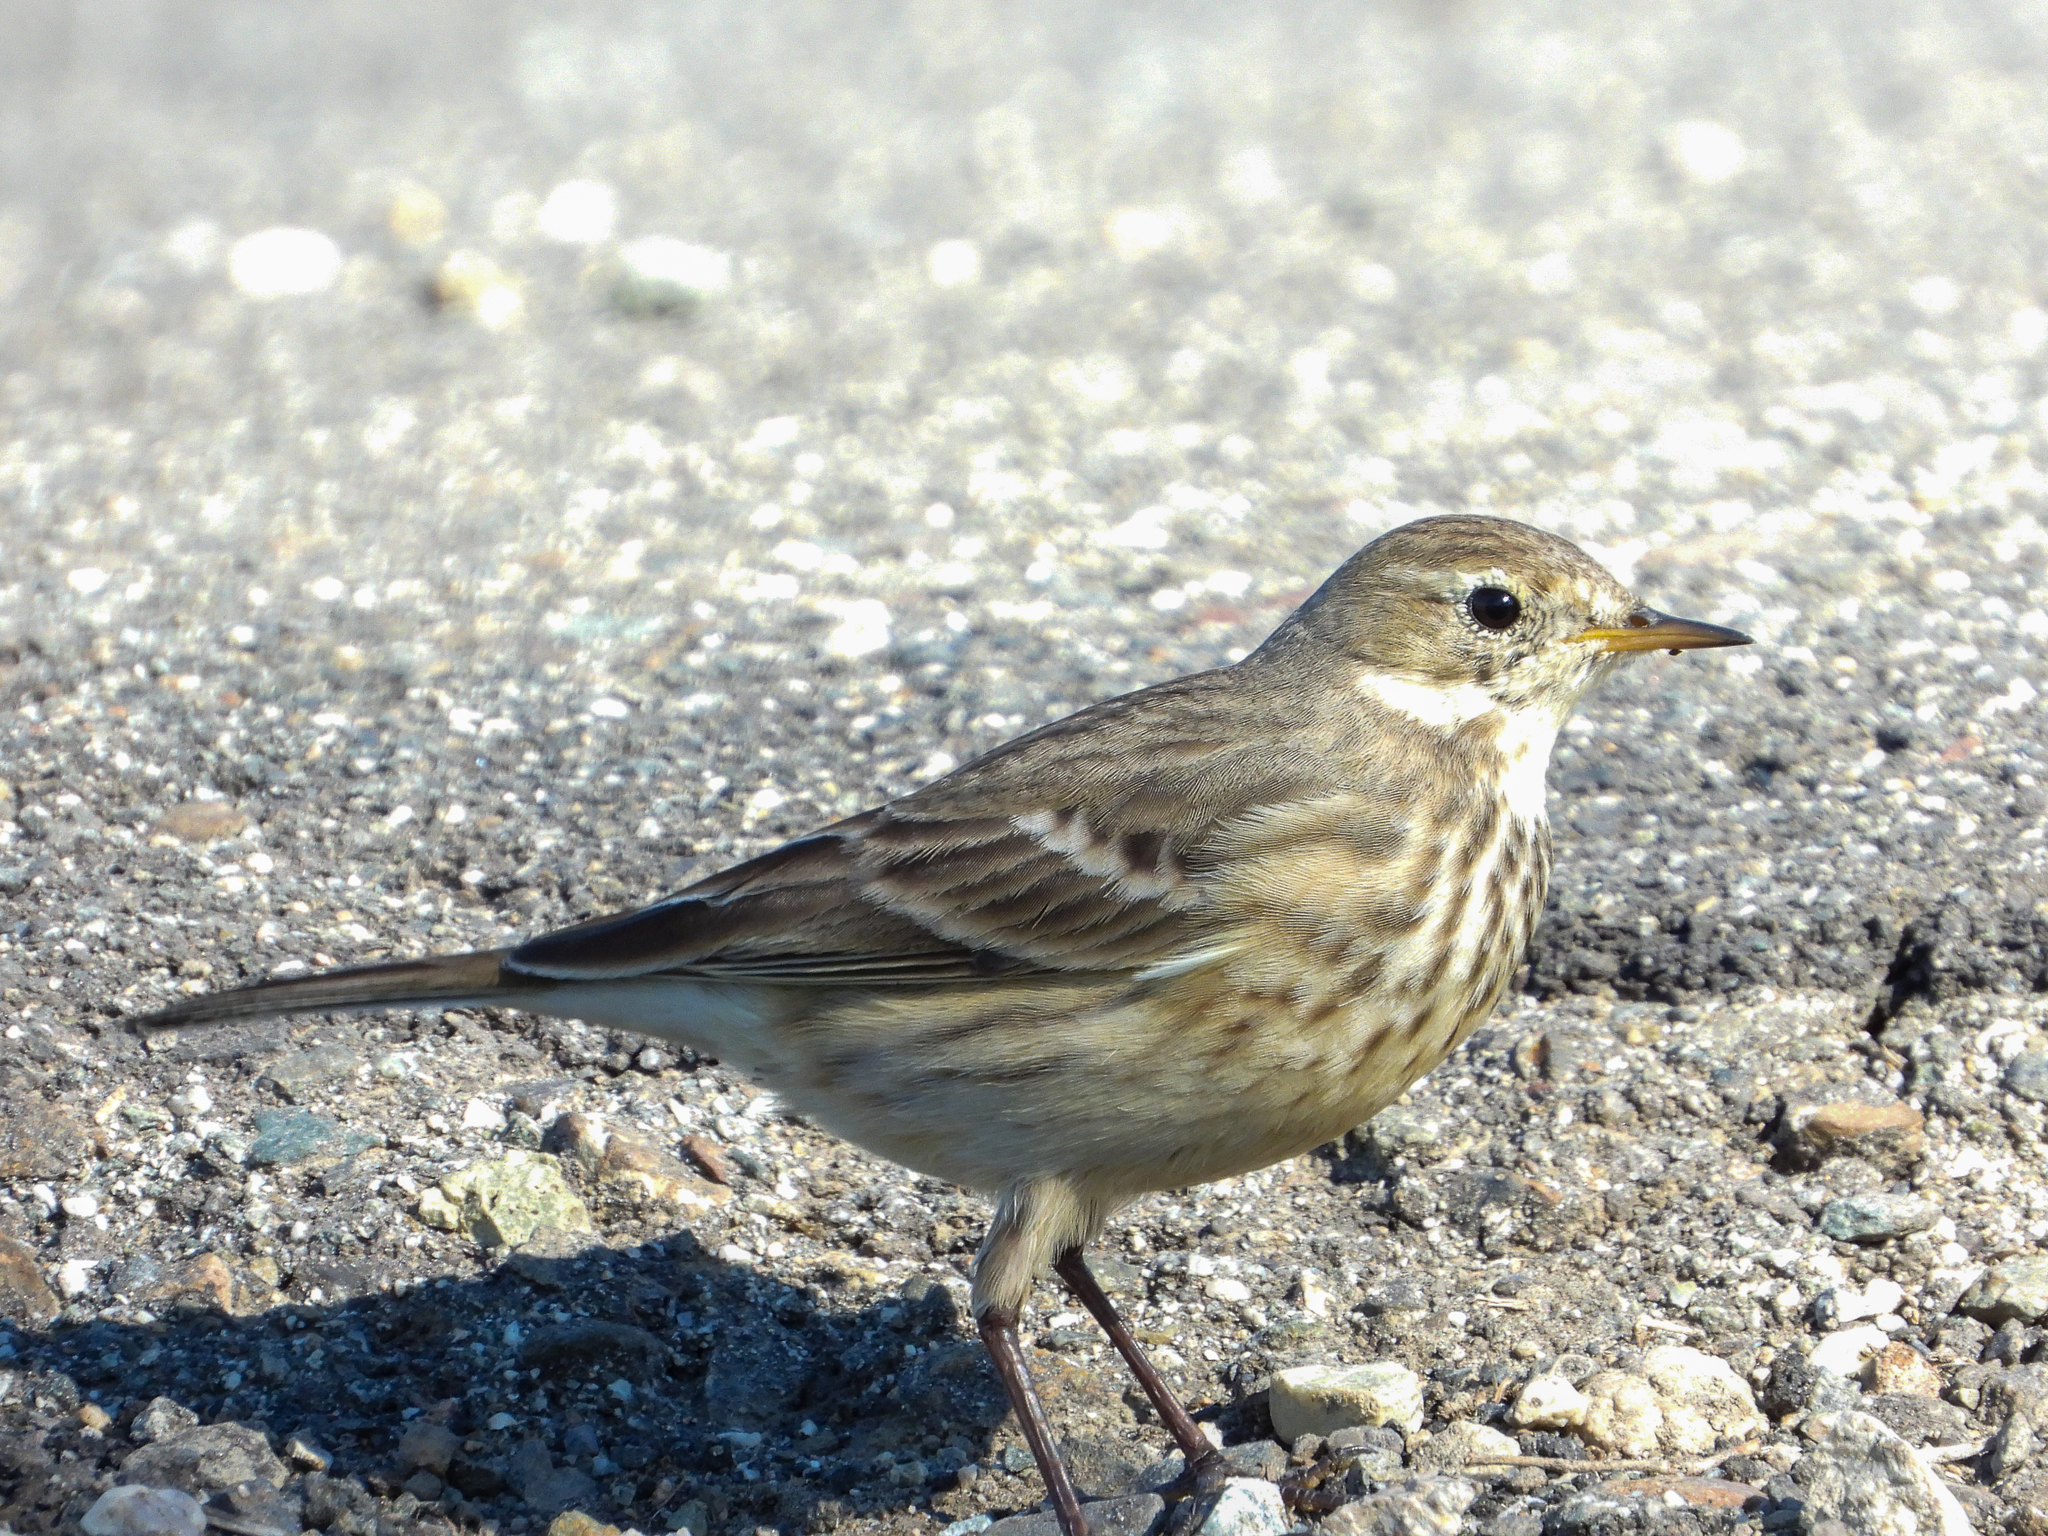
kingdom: Animalia
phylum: Chordata
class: Aves
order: Passeriformes
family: Motacillidae
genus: Anthus
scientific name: Anthus rubescens
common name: Buff-bellied pipit
